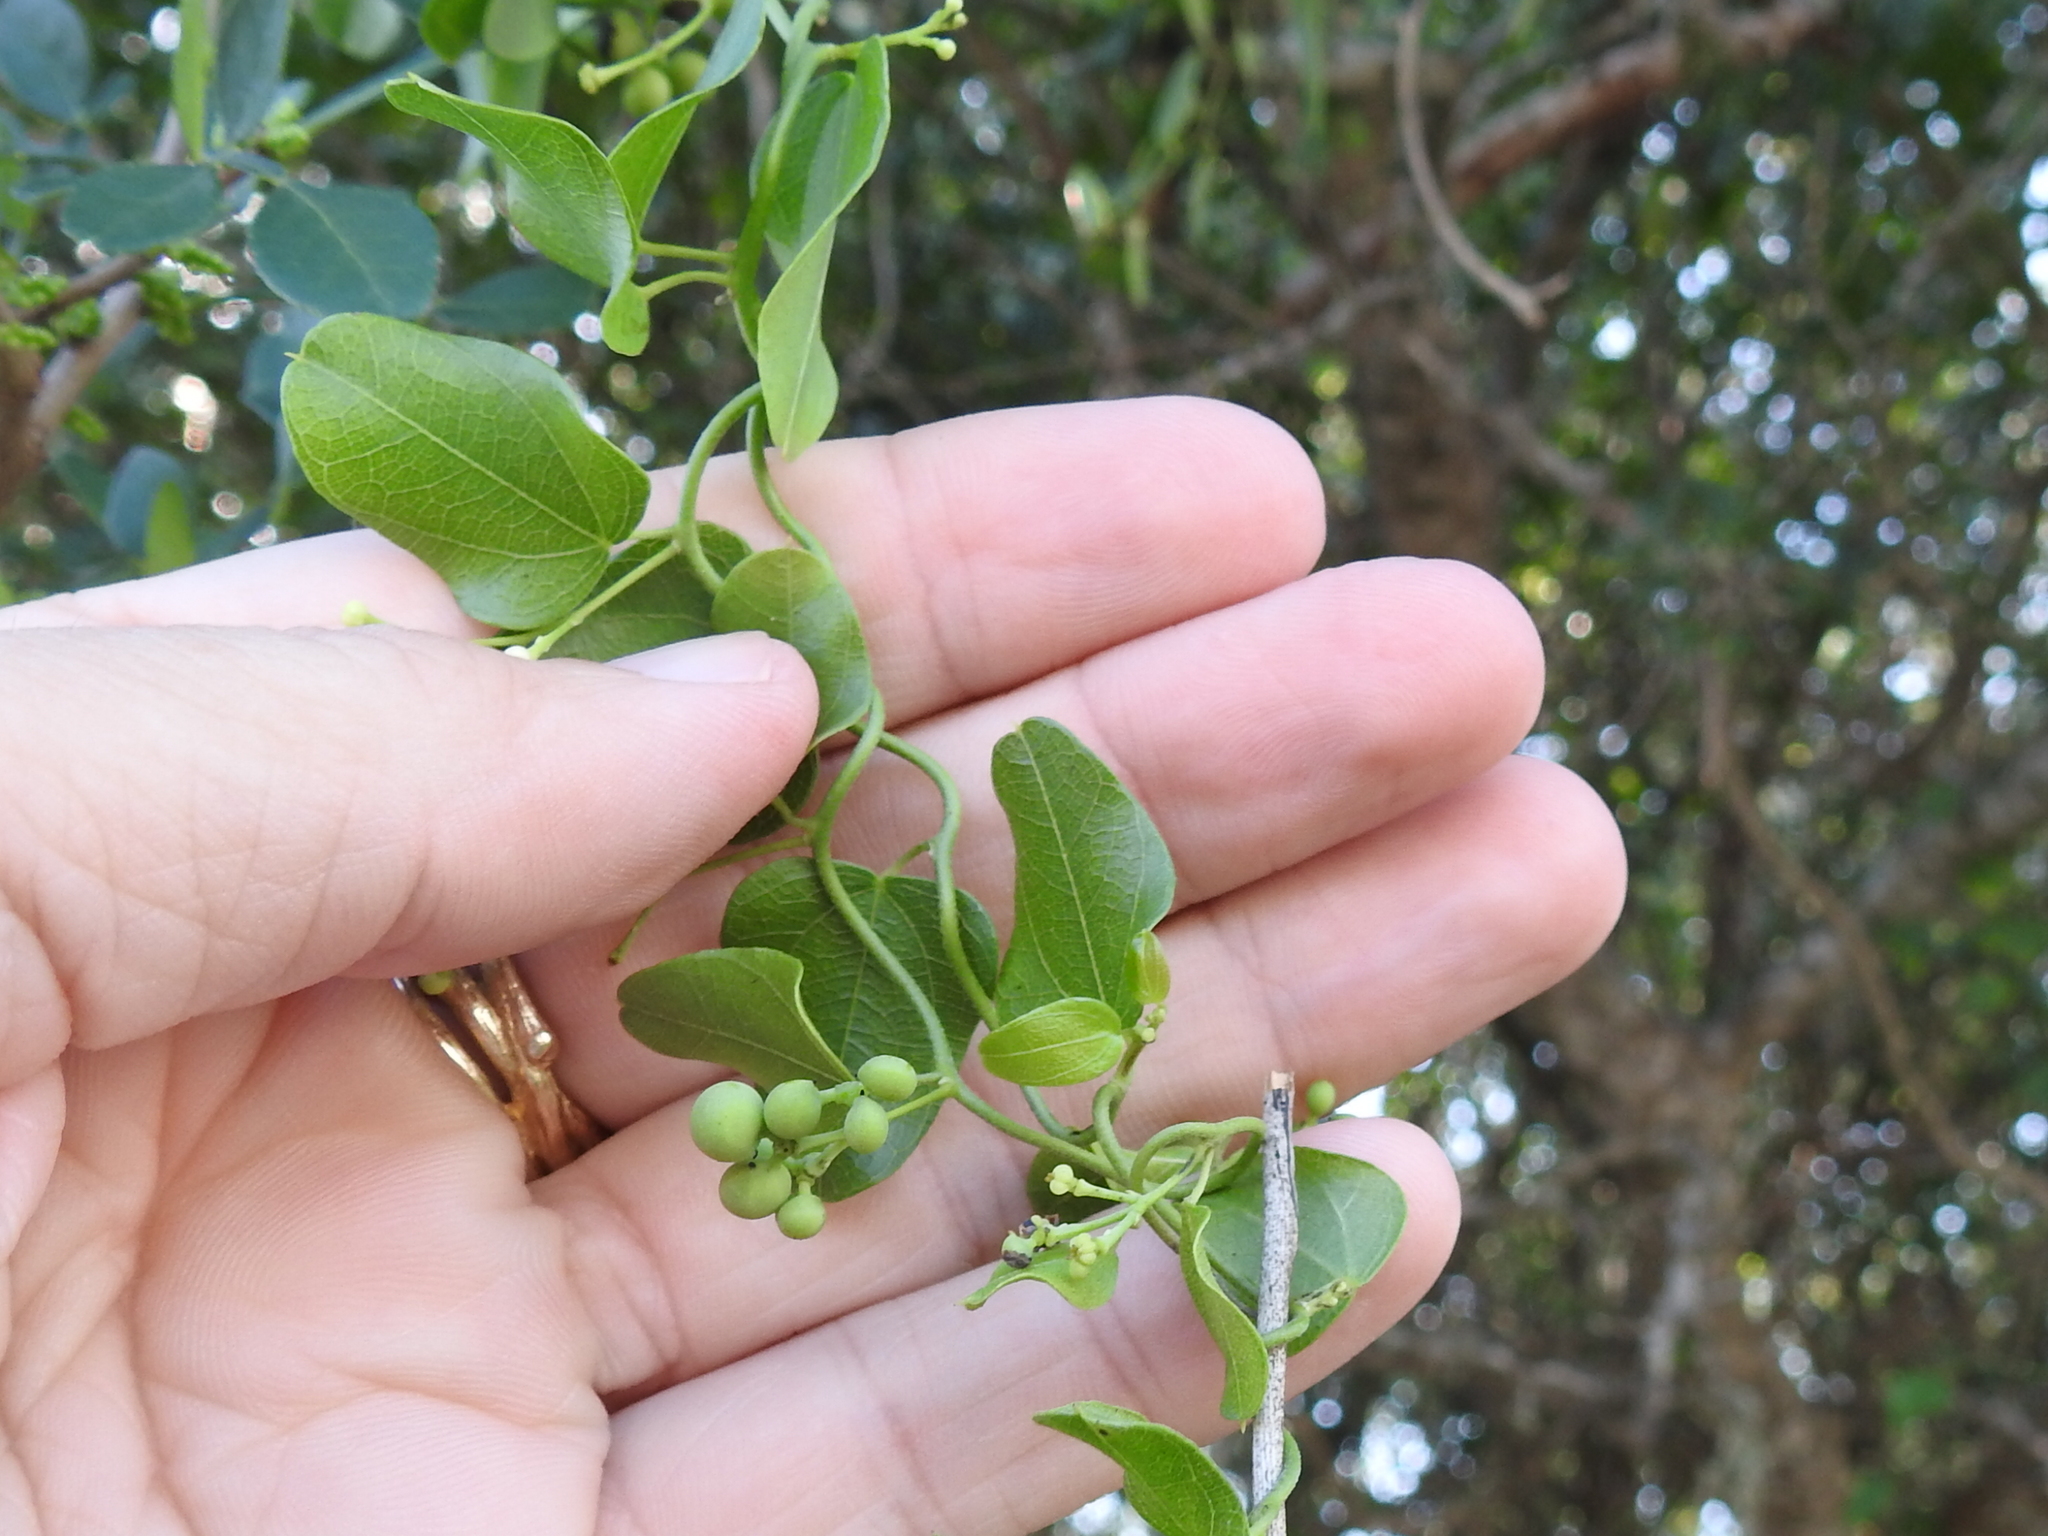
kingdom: Plantae
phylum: Tracheophyta
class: Magnoliopsida
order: Ranunculales
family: Menispermaceae
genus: Cocculus
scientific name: Cocculus diversifolius
